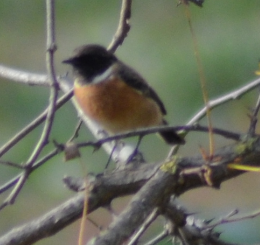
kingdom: Animalia
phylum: Chordata
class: Aves
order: Passeriformes
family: Muscicapidae
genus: Saxicola
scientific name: Saxicola rubicola
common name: European stonechat
